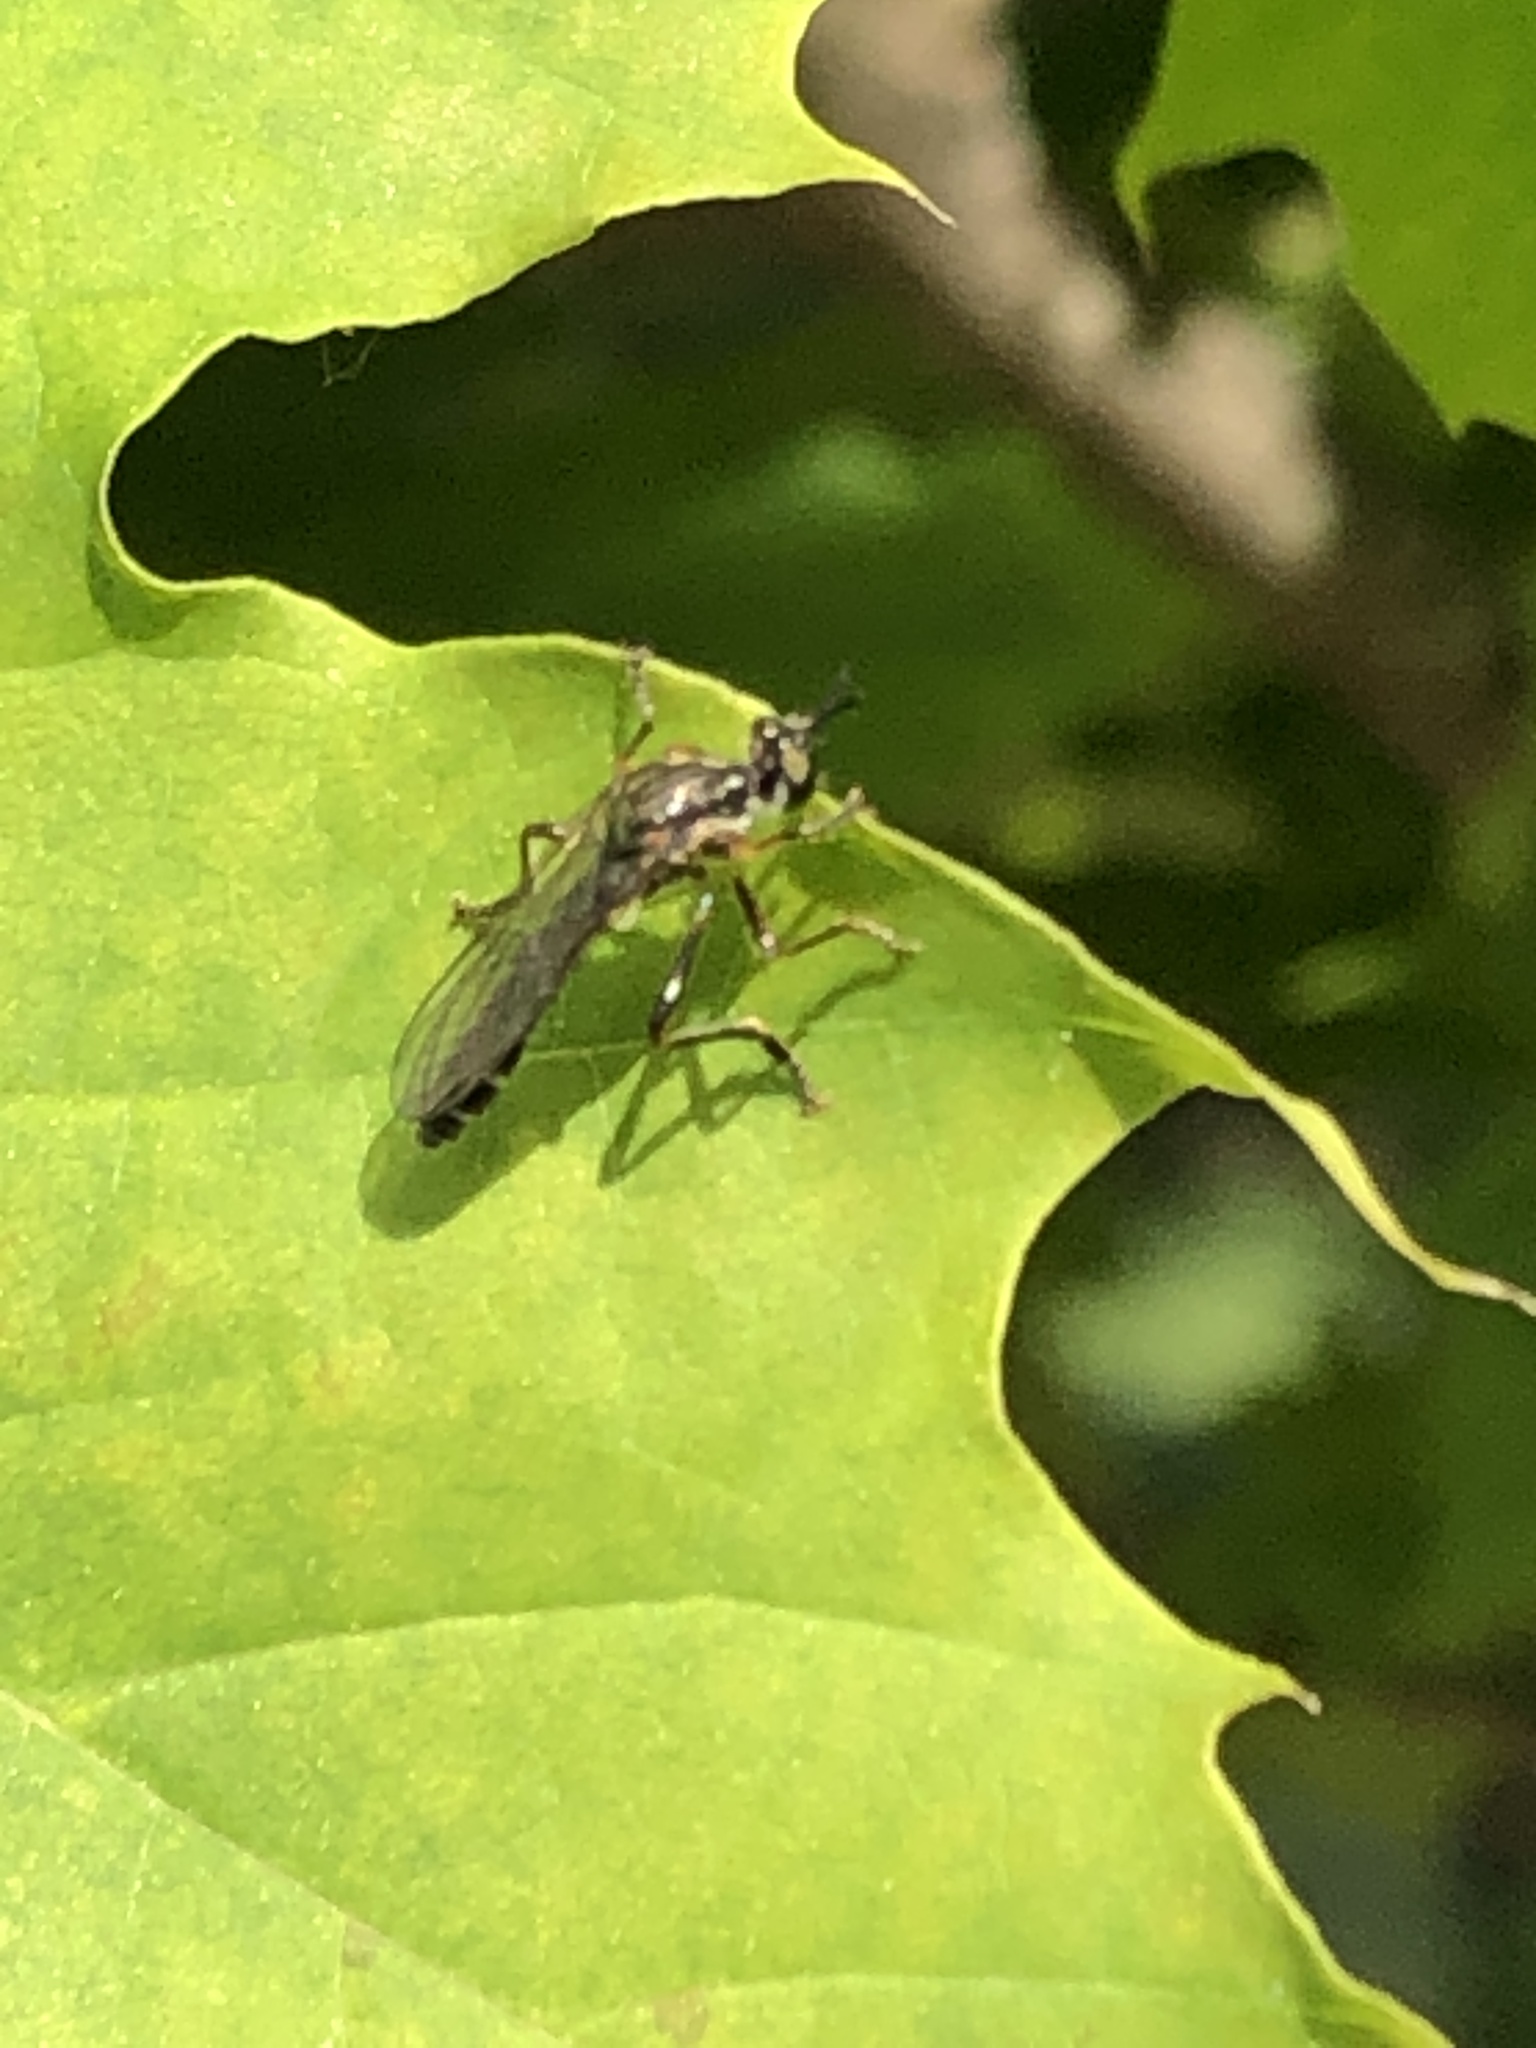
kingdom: Animalia
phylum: Arthropoda
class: Insecta
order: Diptera
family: Asilidae
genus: Dioctria
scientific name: Dioctria hyalipennis
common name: Stripe-legged robberfly
